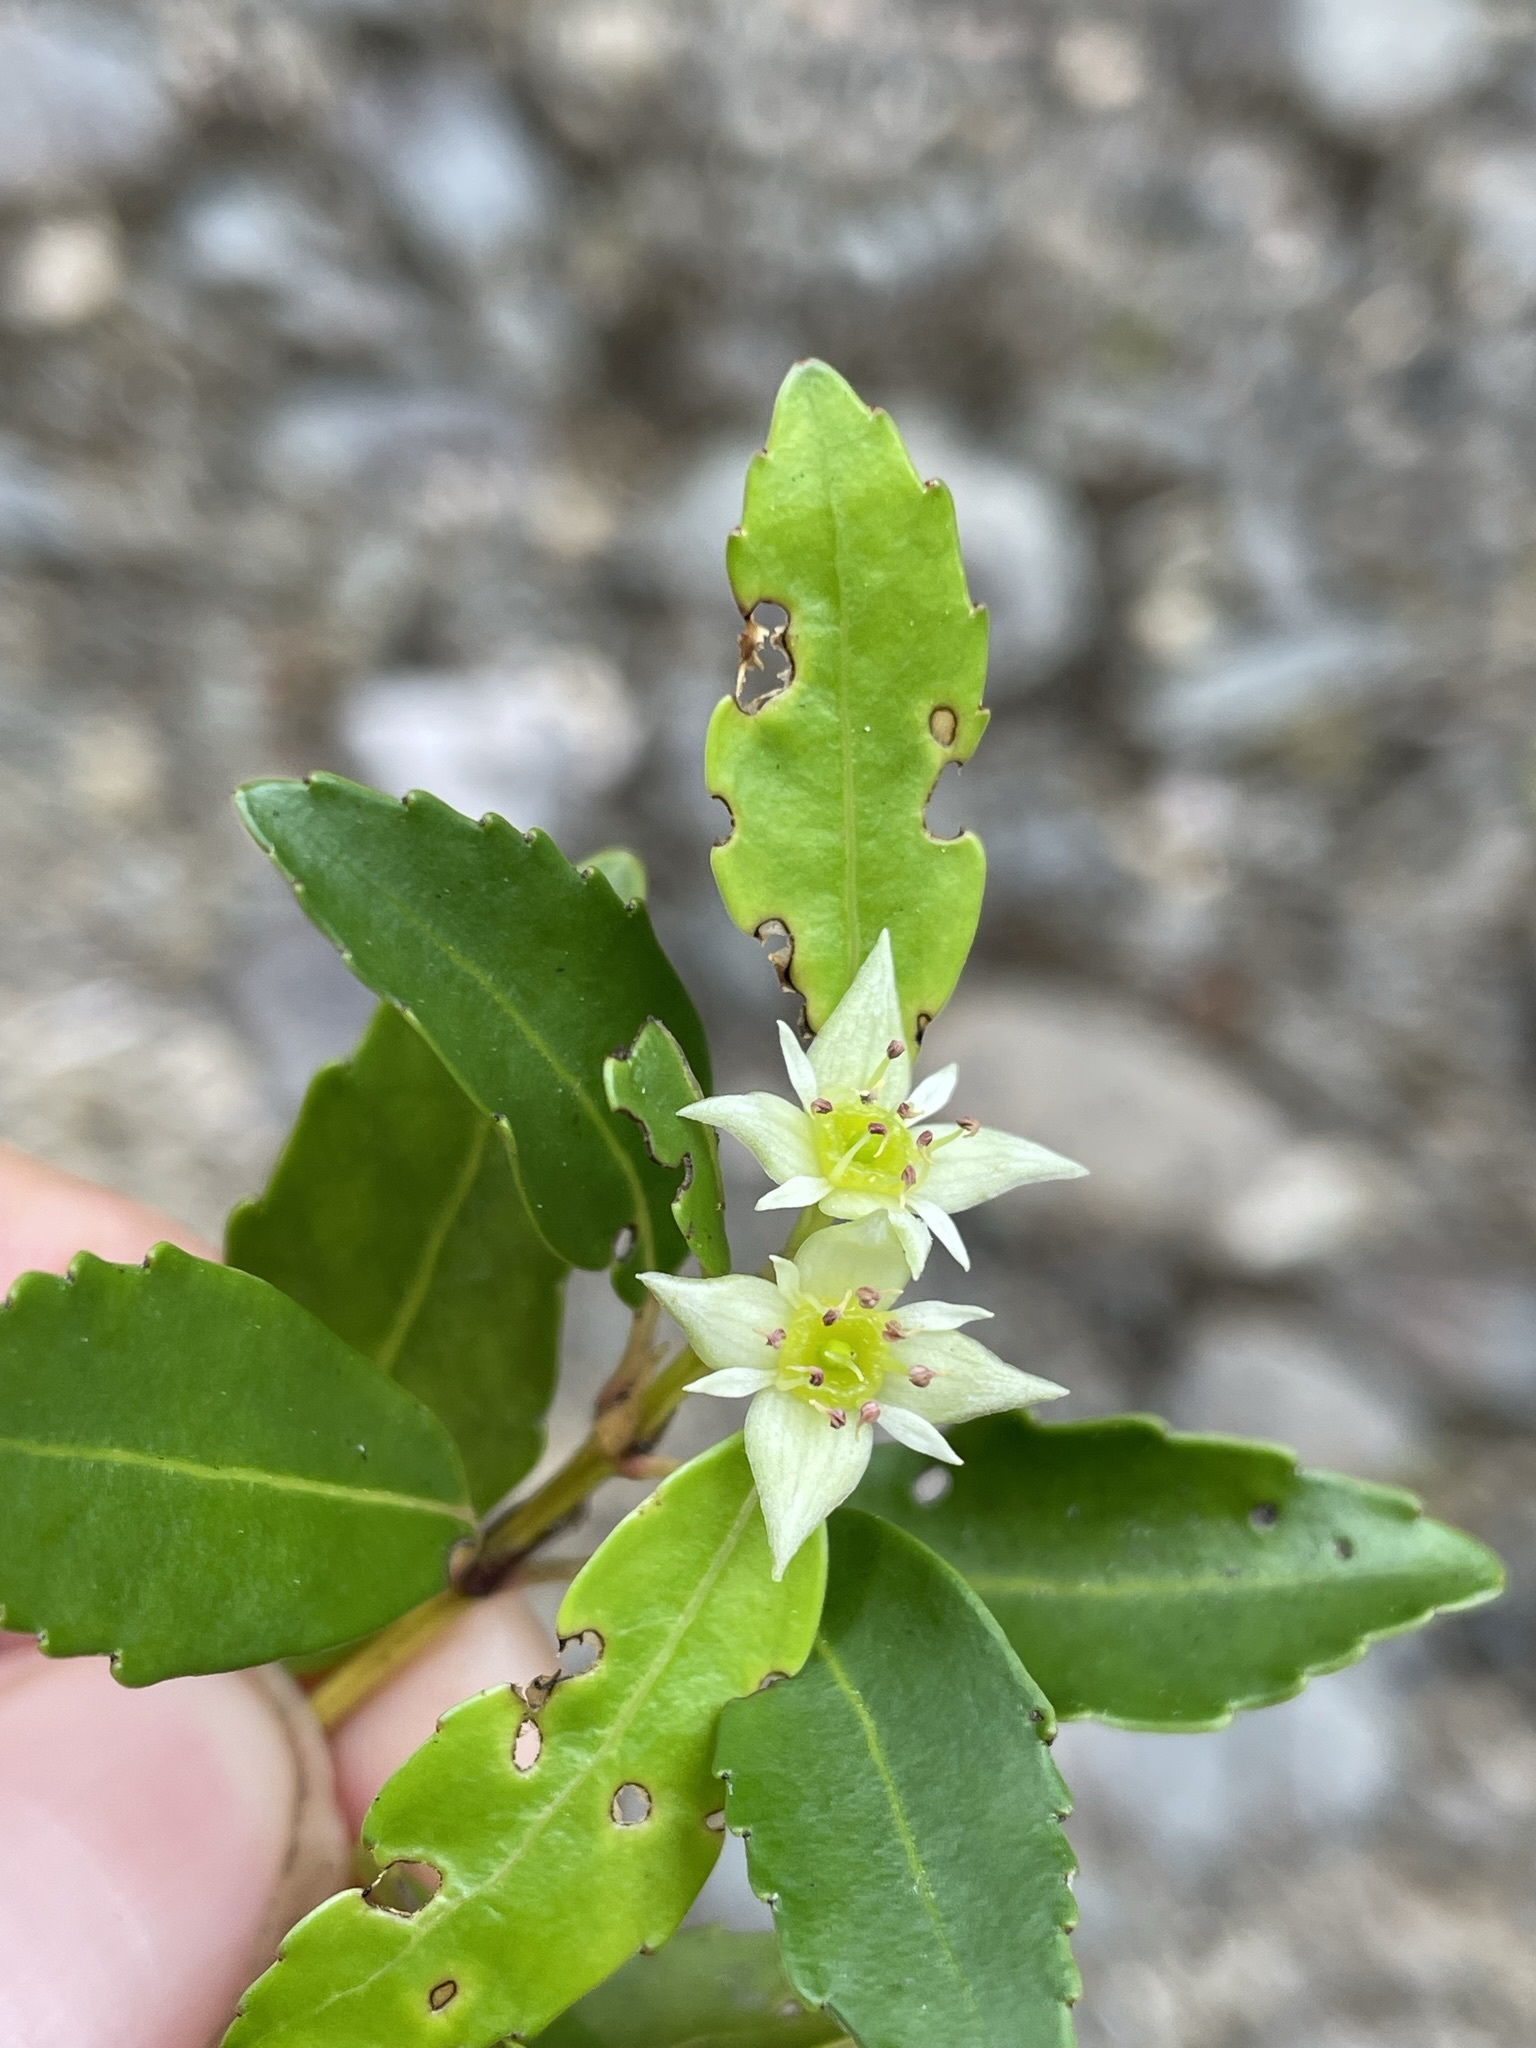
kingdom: Plantae
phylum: Tracheophyta
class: Magnoliopsida
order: Oxalidales
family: Cunoniaceae
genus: Anodopetalum
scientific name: Anodopetalum biglandulosum
